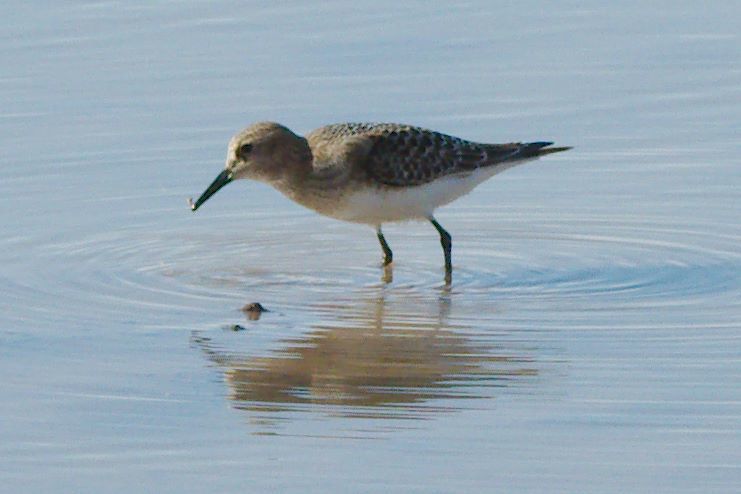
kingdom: Animalia
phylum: Chordata
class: Aves
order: Charadriiformes
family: Scolopacidae
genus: Calidris
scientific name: Calidris bairdii
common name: Baird's sandpiper
